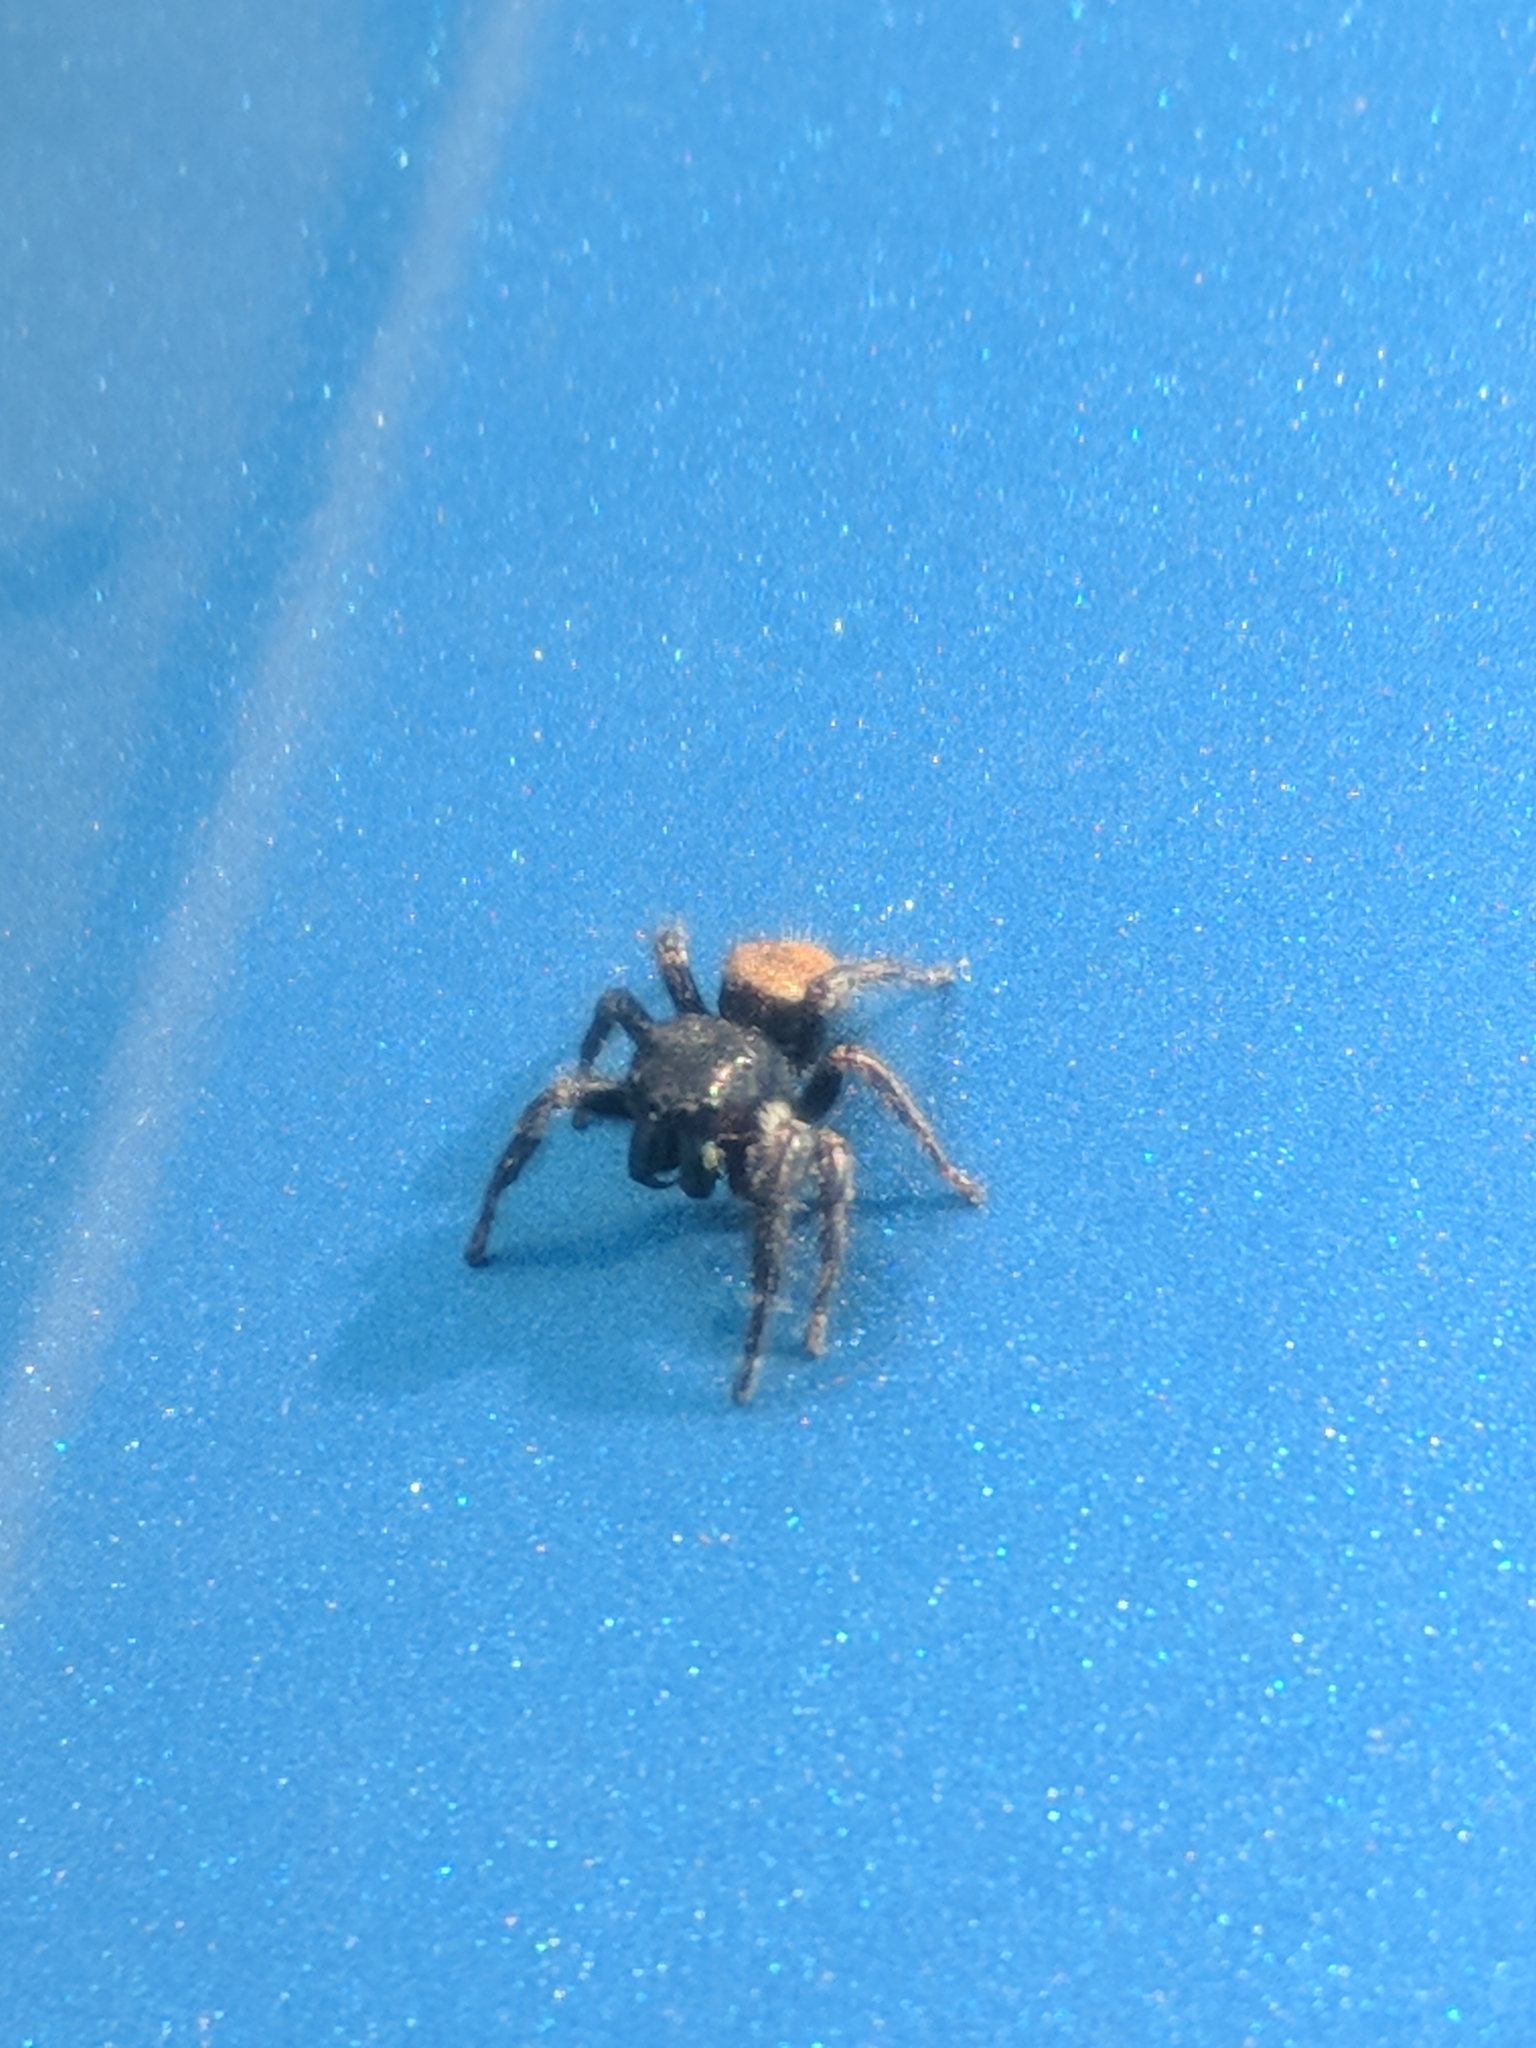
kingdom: Animalia
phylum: Arthropoda
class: Arachnida
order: Araneae
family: Salticidae
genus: Phidippus
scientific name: Phidippus princeps
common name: Grayish jumping spider
